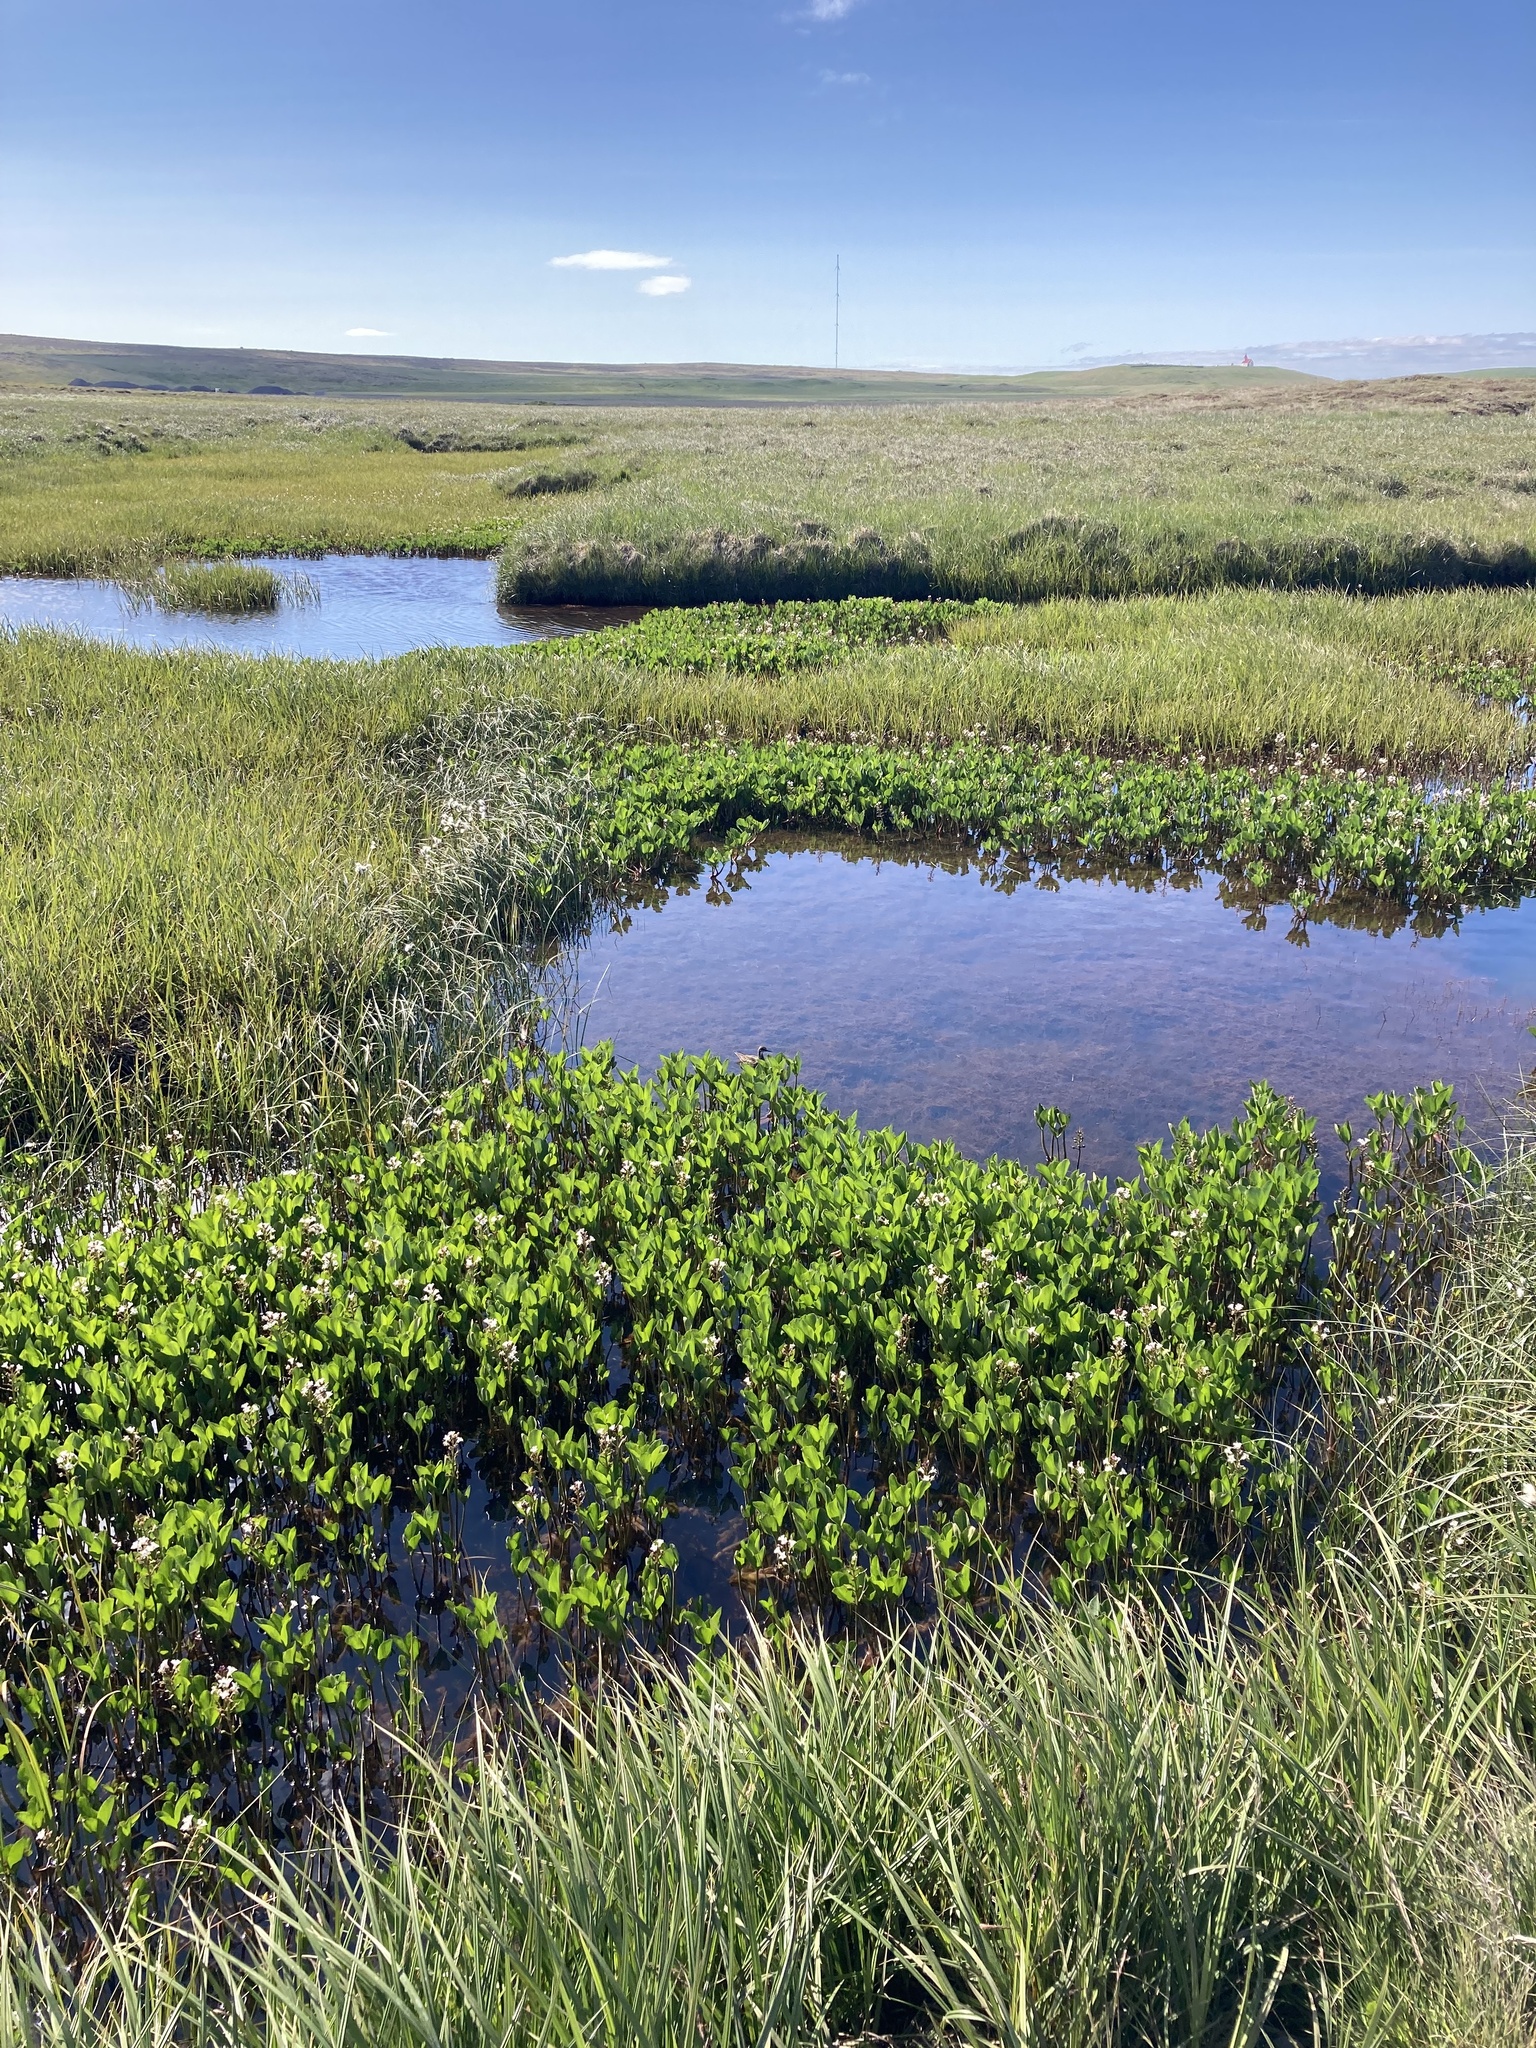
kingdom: Plantae
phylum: Tracheophyta
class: Magnoliopsida
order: Asterales
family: Menyanthaceae
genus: Menyanthes
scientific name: Menyanthes trifoliata
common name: Bogbean
